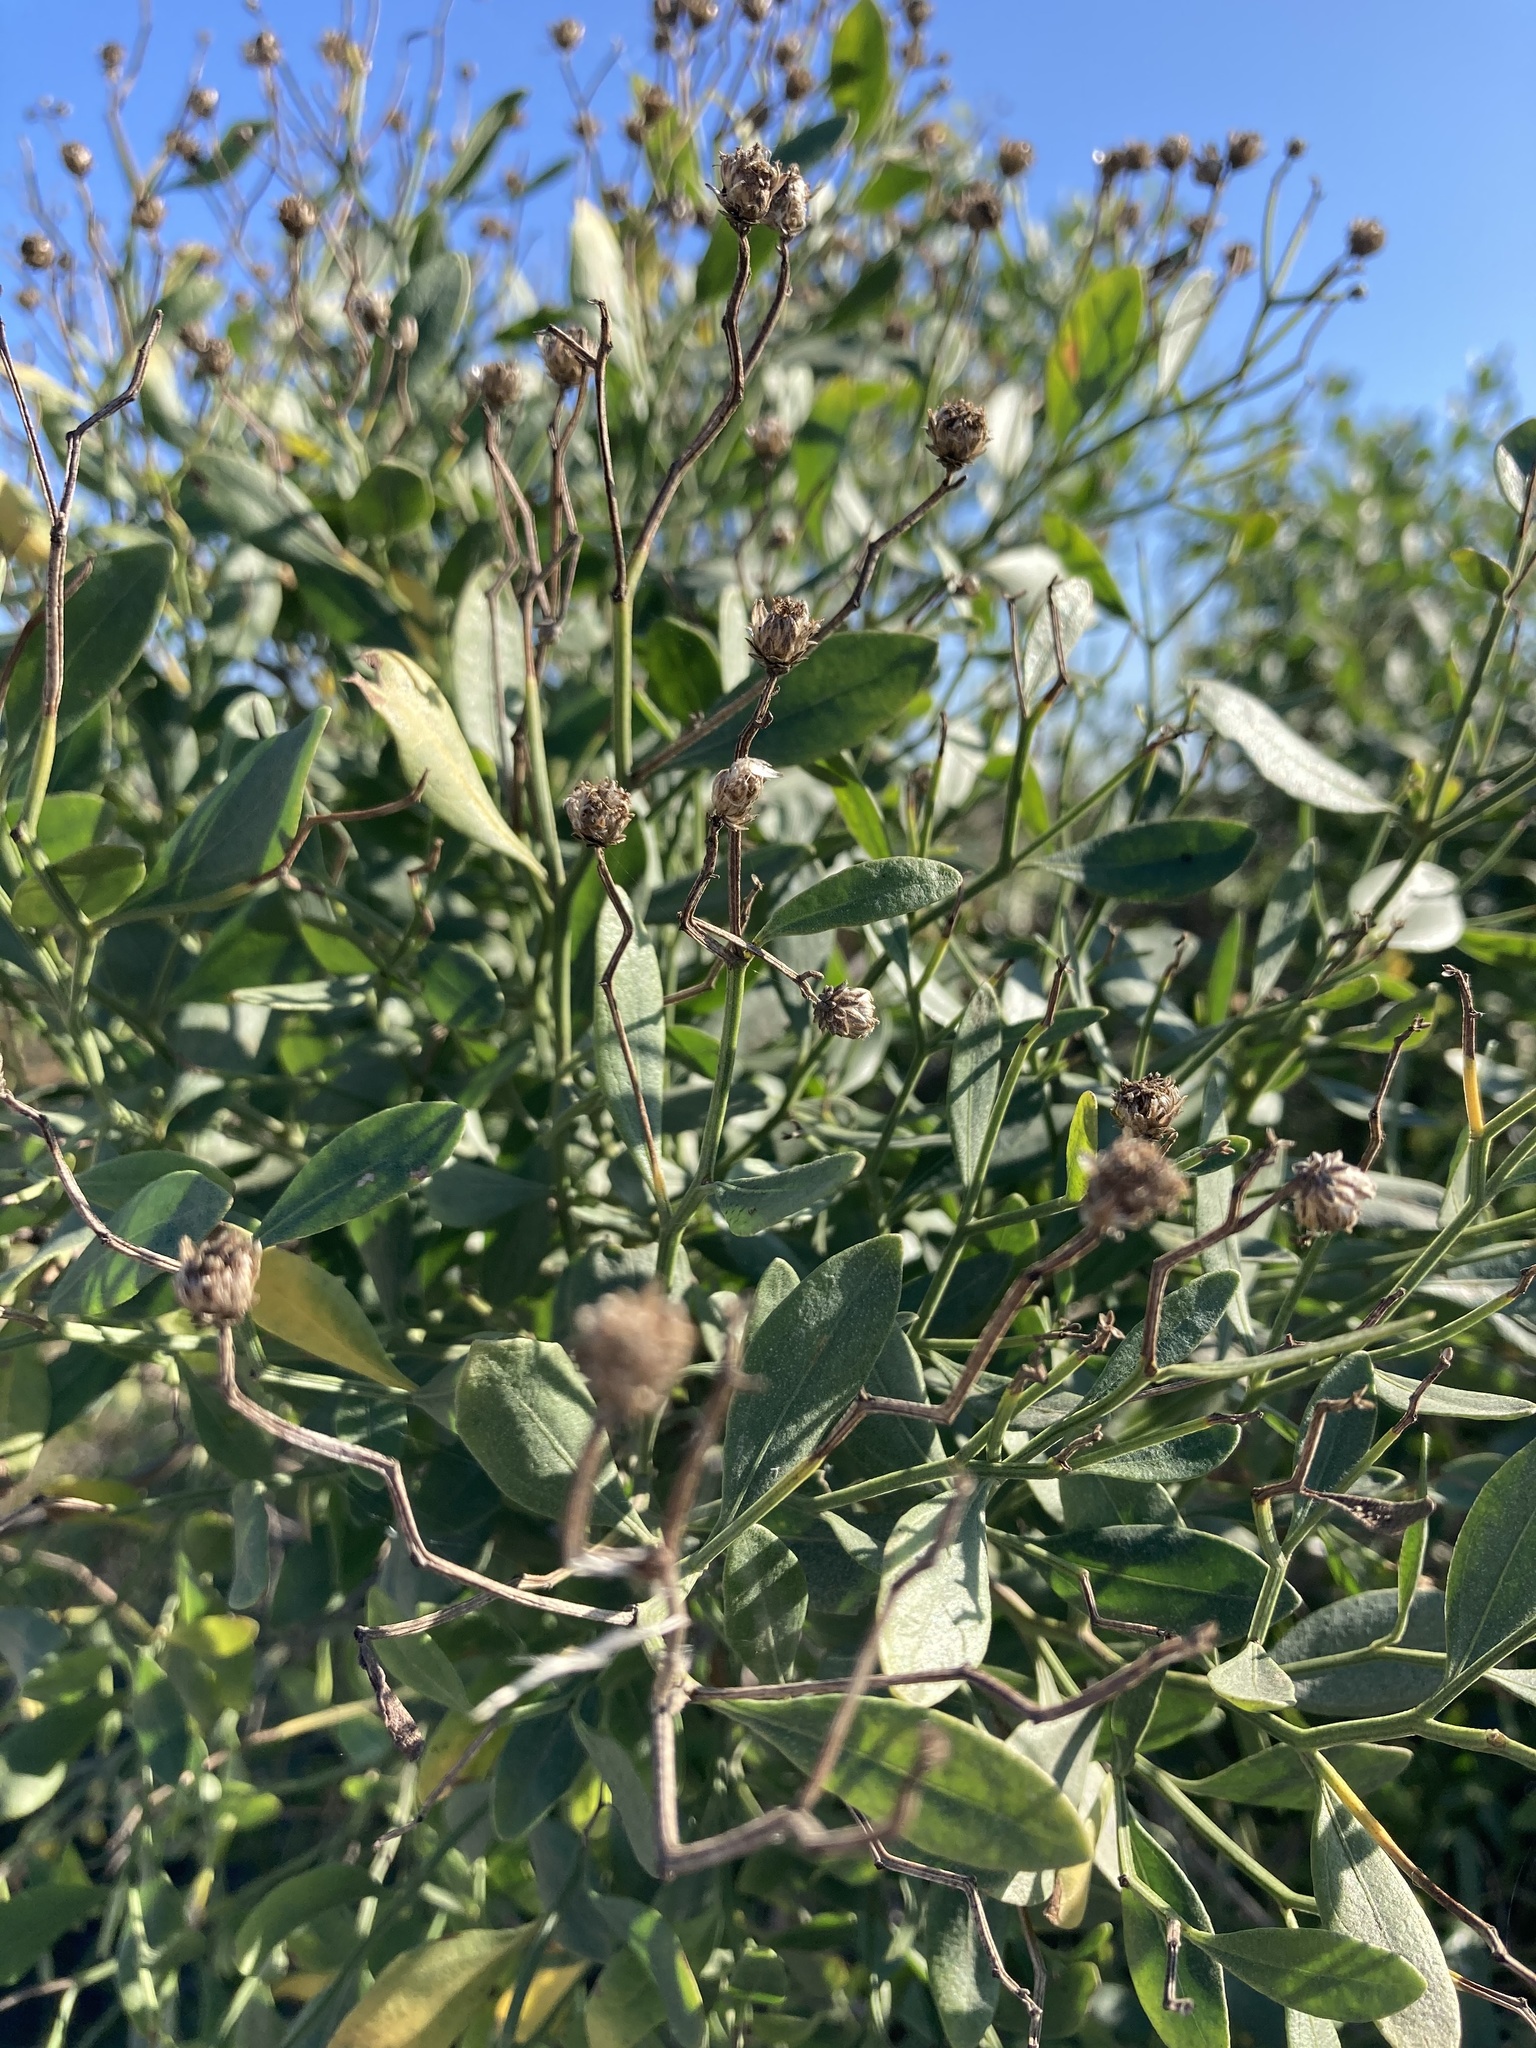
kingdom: Plantae
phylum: Tracheophyta
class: Magnoliopsida
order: Asterales
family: Asteraceae
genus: Baccharis
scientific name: Baccharis halimifolia
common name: Eastern baccharis
